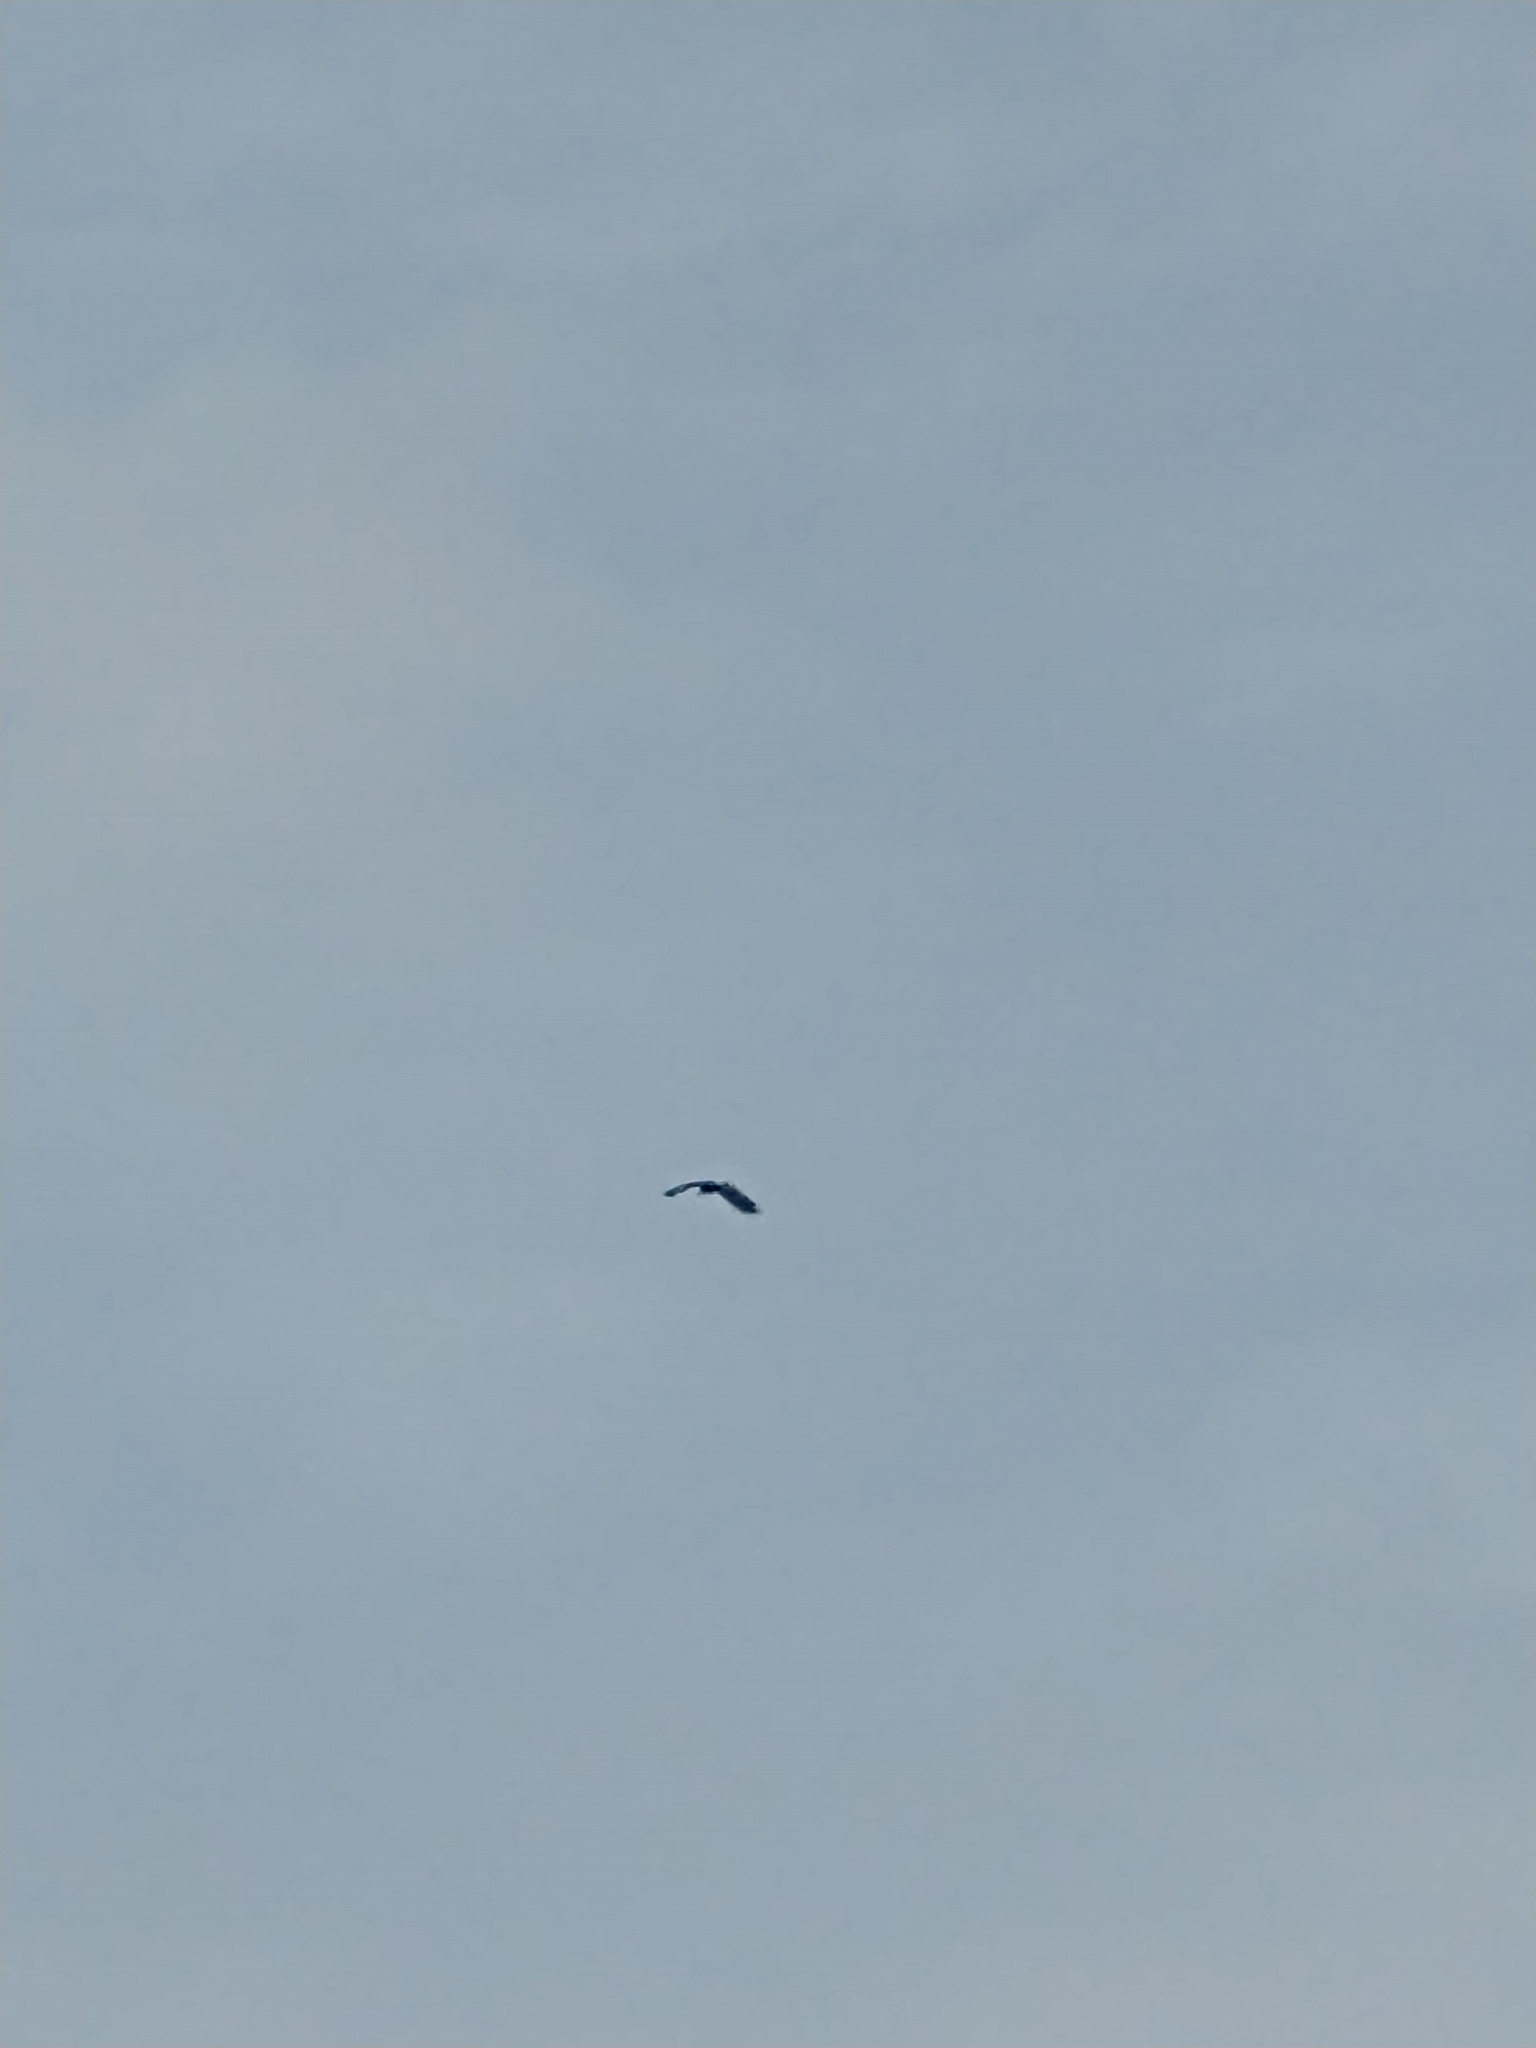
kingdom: Animalia
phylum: Chordata
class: Aves
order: Accipitriformes
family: Accipitridae
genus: Haliaeetus
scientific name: Haliaeetus leucocephalus
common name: Bald eagle
